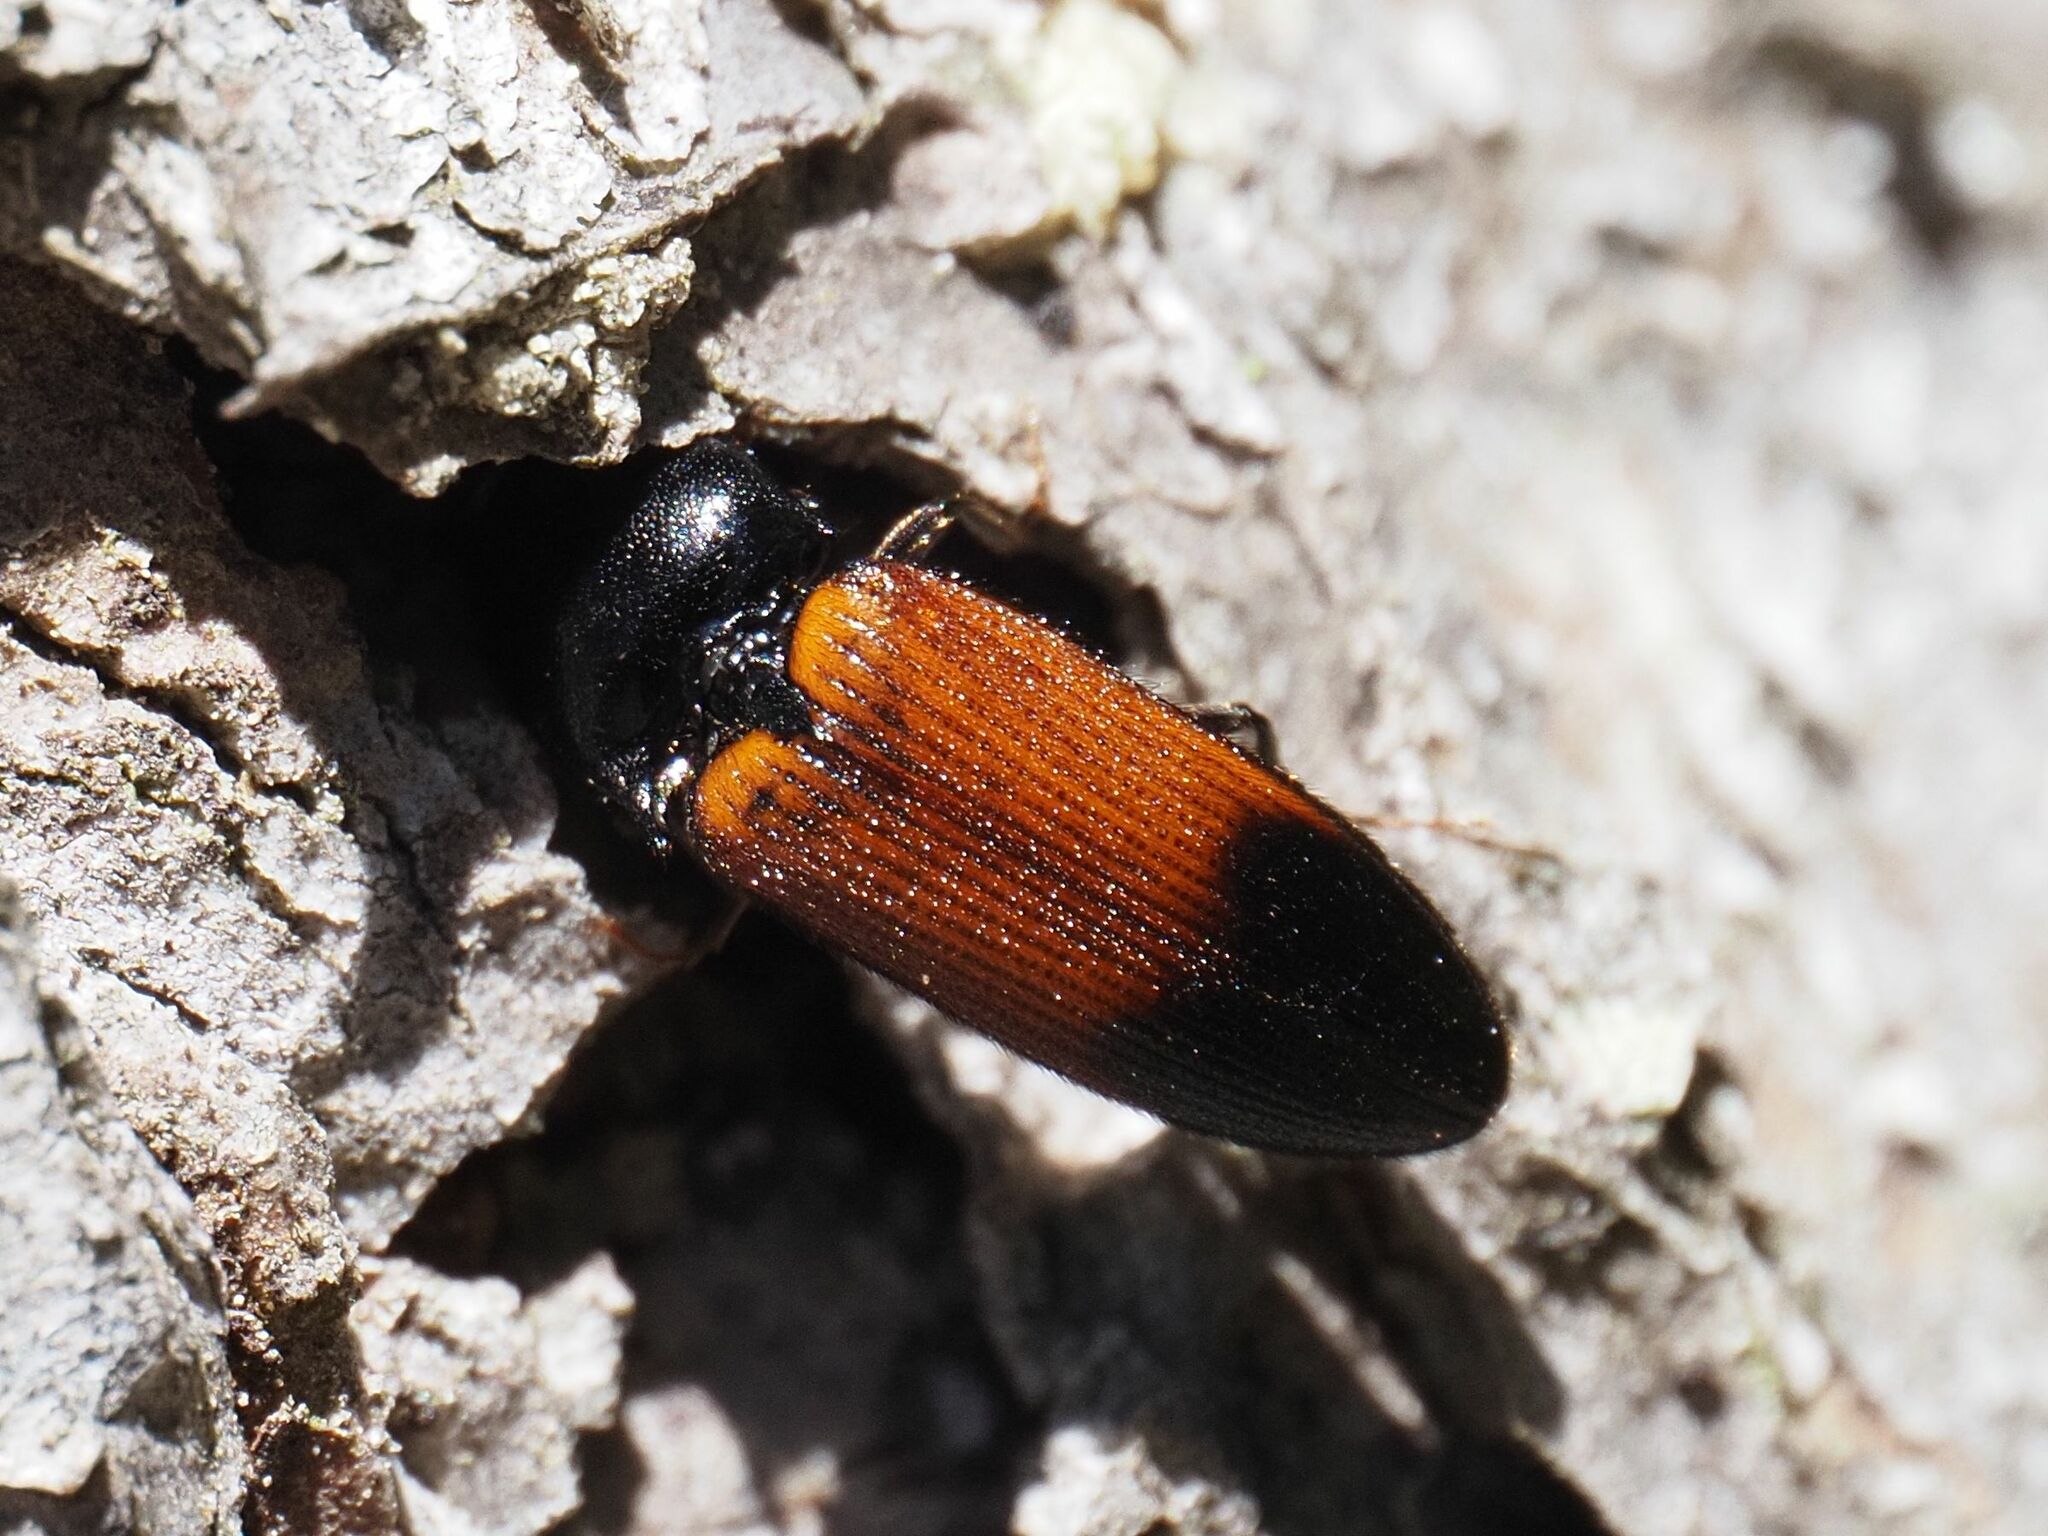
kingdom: Animalia
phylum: Arthropoda
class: Insecta
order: Coleoptera
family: Elateridae
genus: Ampedus
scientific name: Ampedus balteatus
